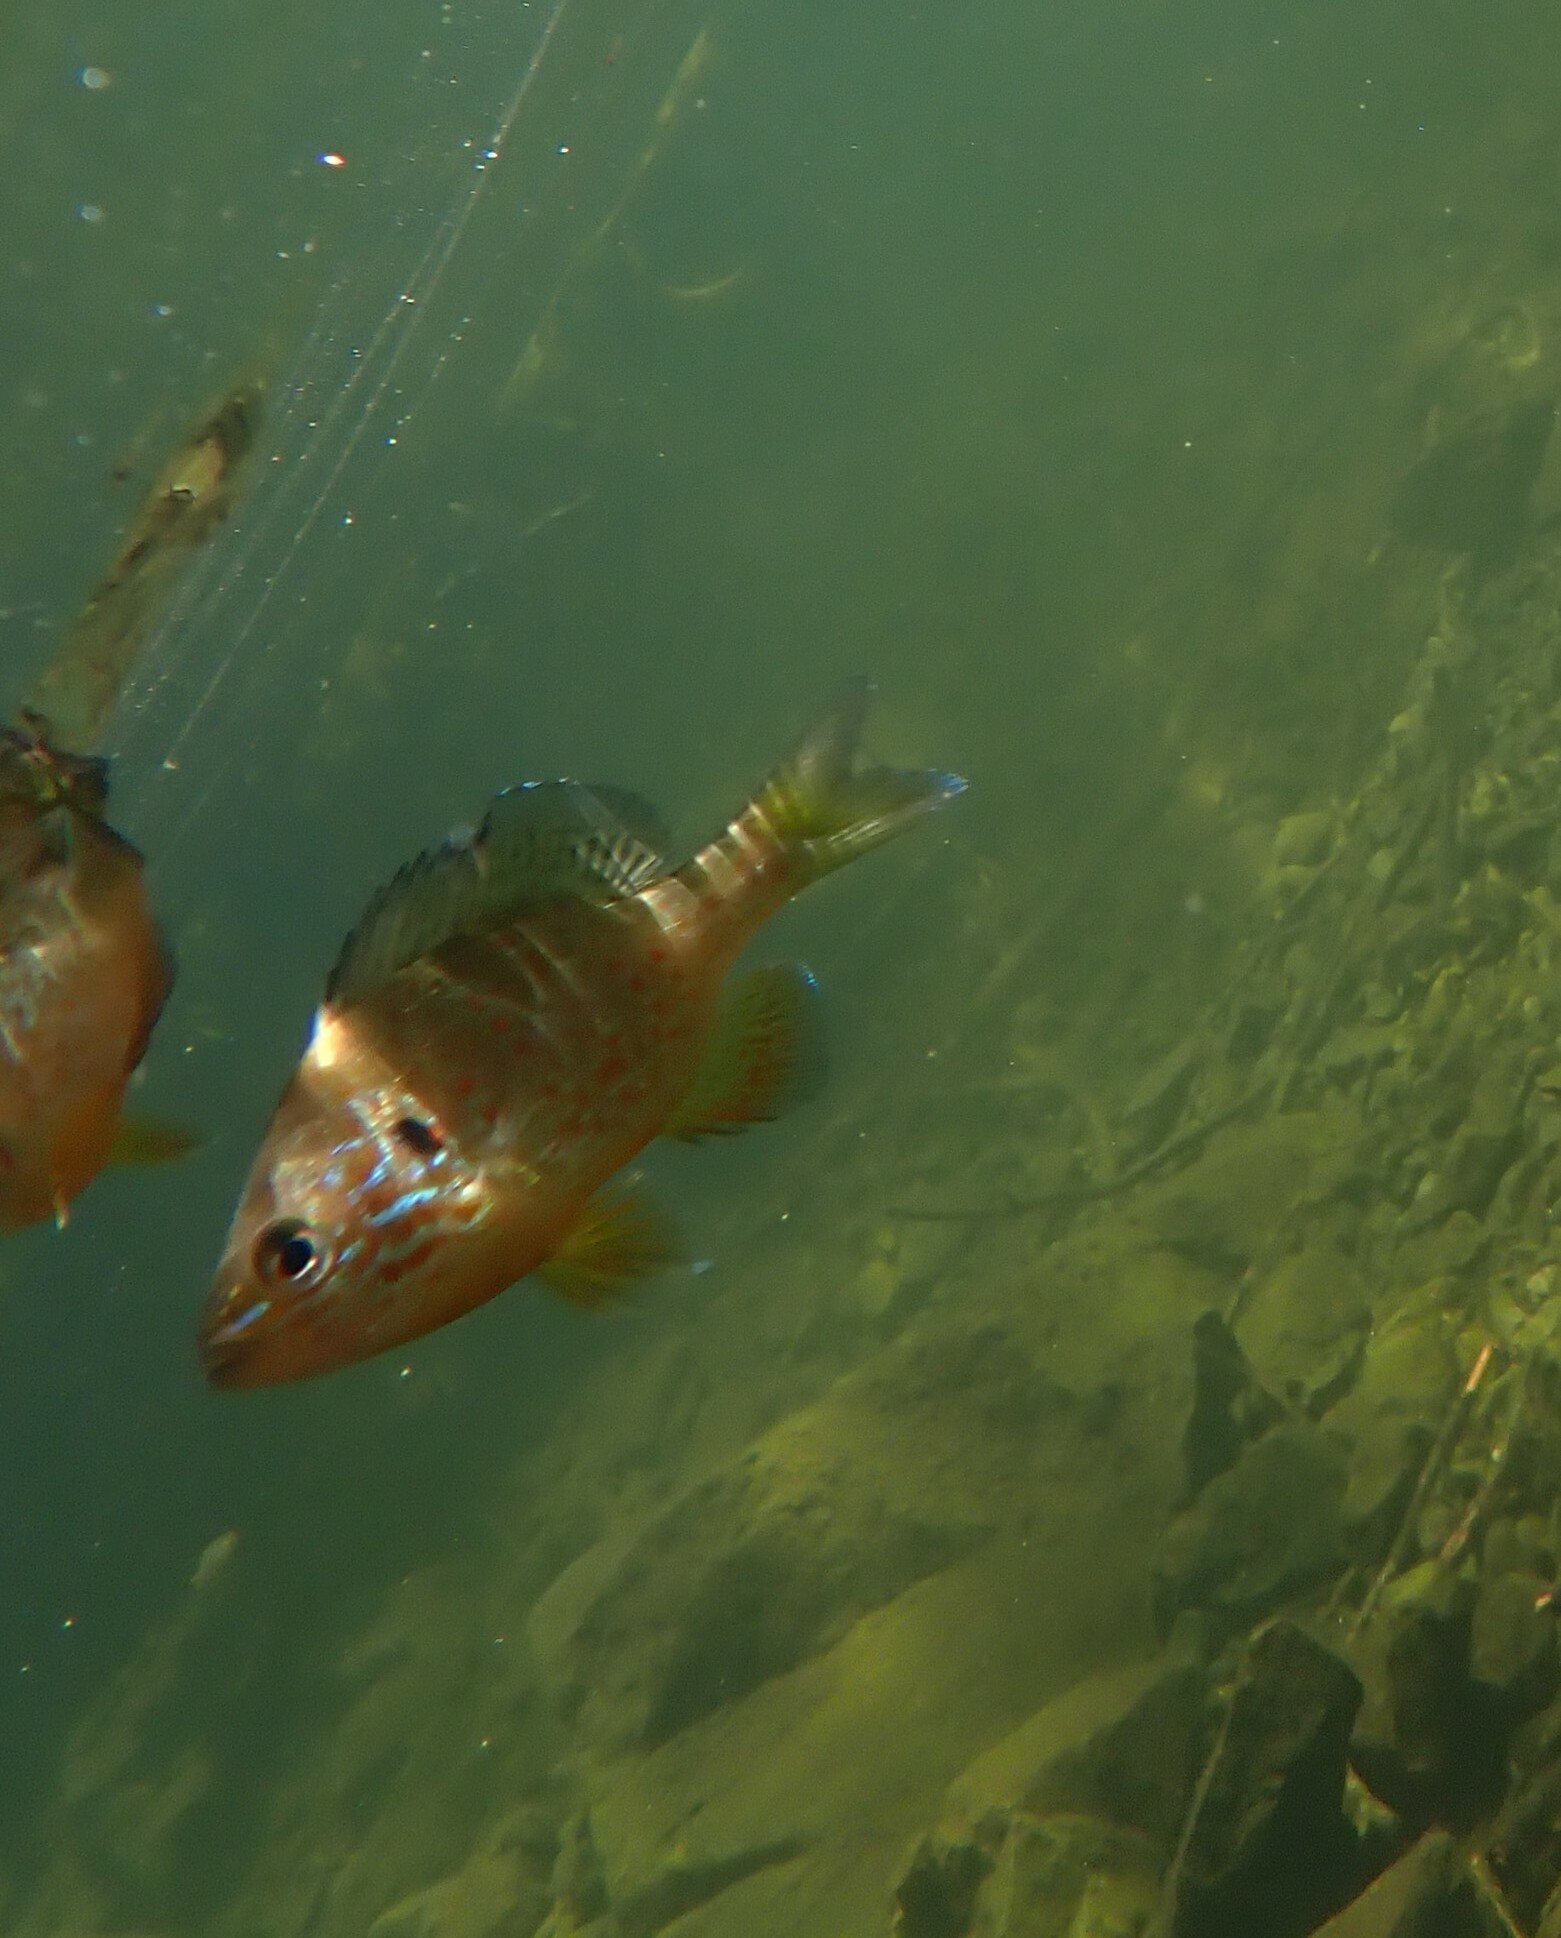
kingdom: Animalia
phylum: Chordata
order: Perciformes
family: Centrarchidae
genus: Lepomis
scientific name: Lepomis gibbosus
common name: Pumpkinseed
